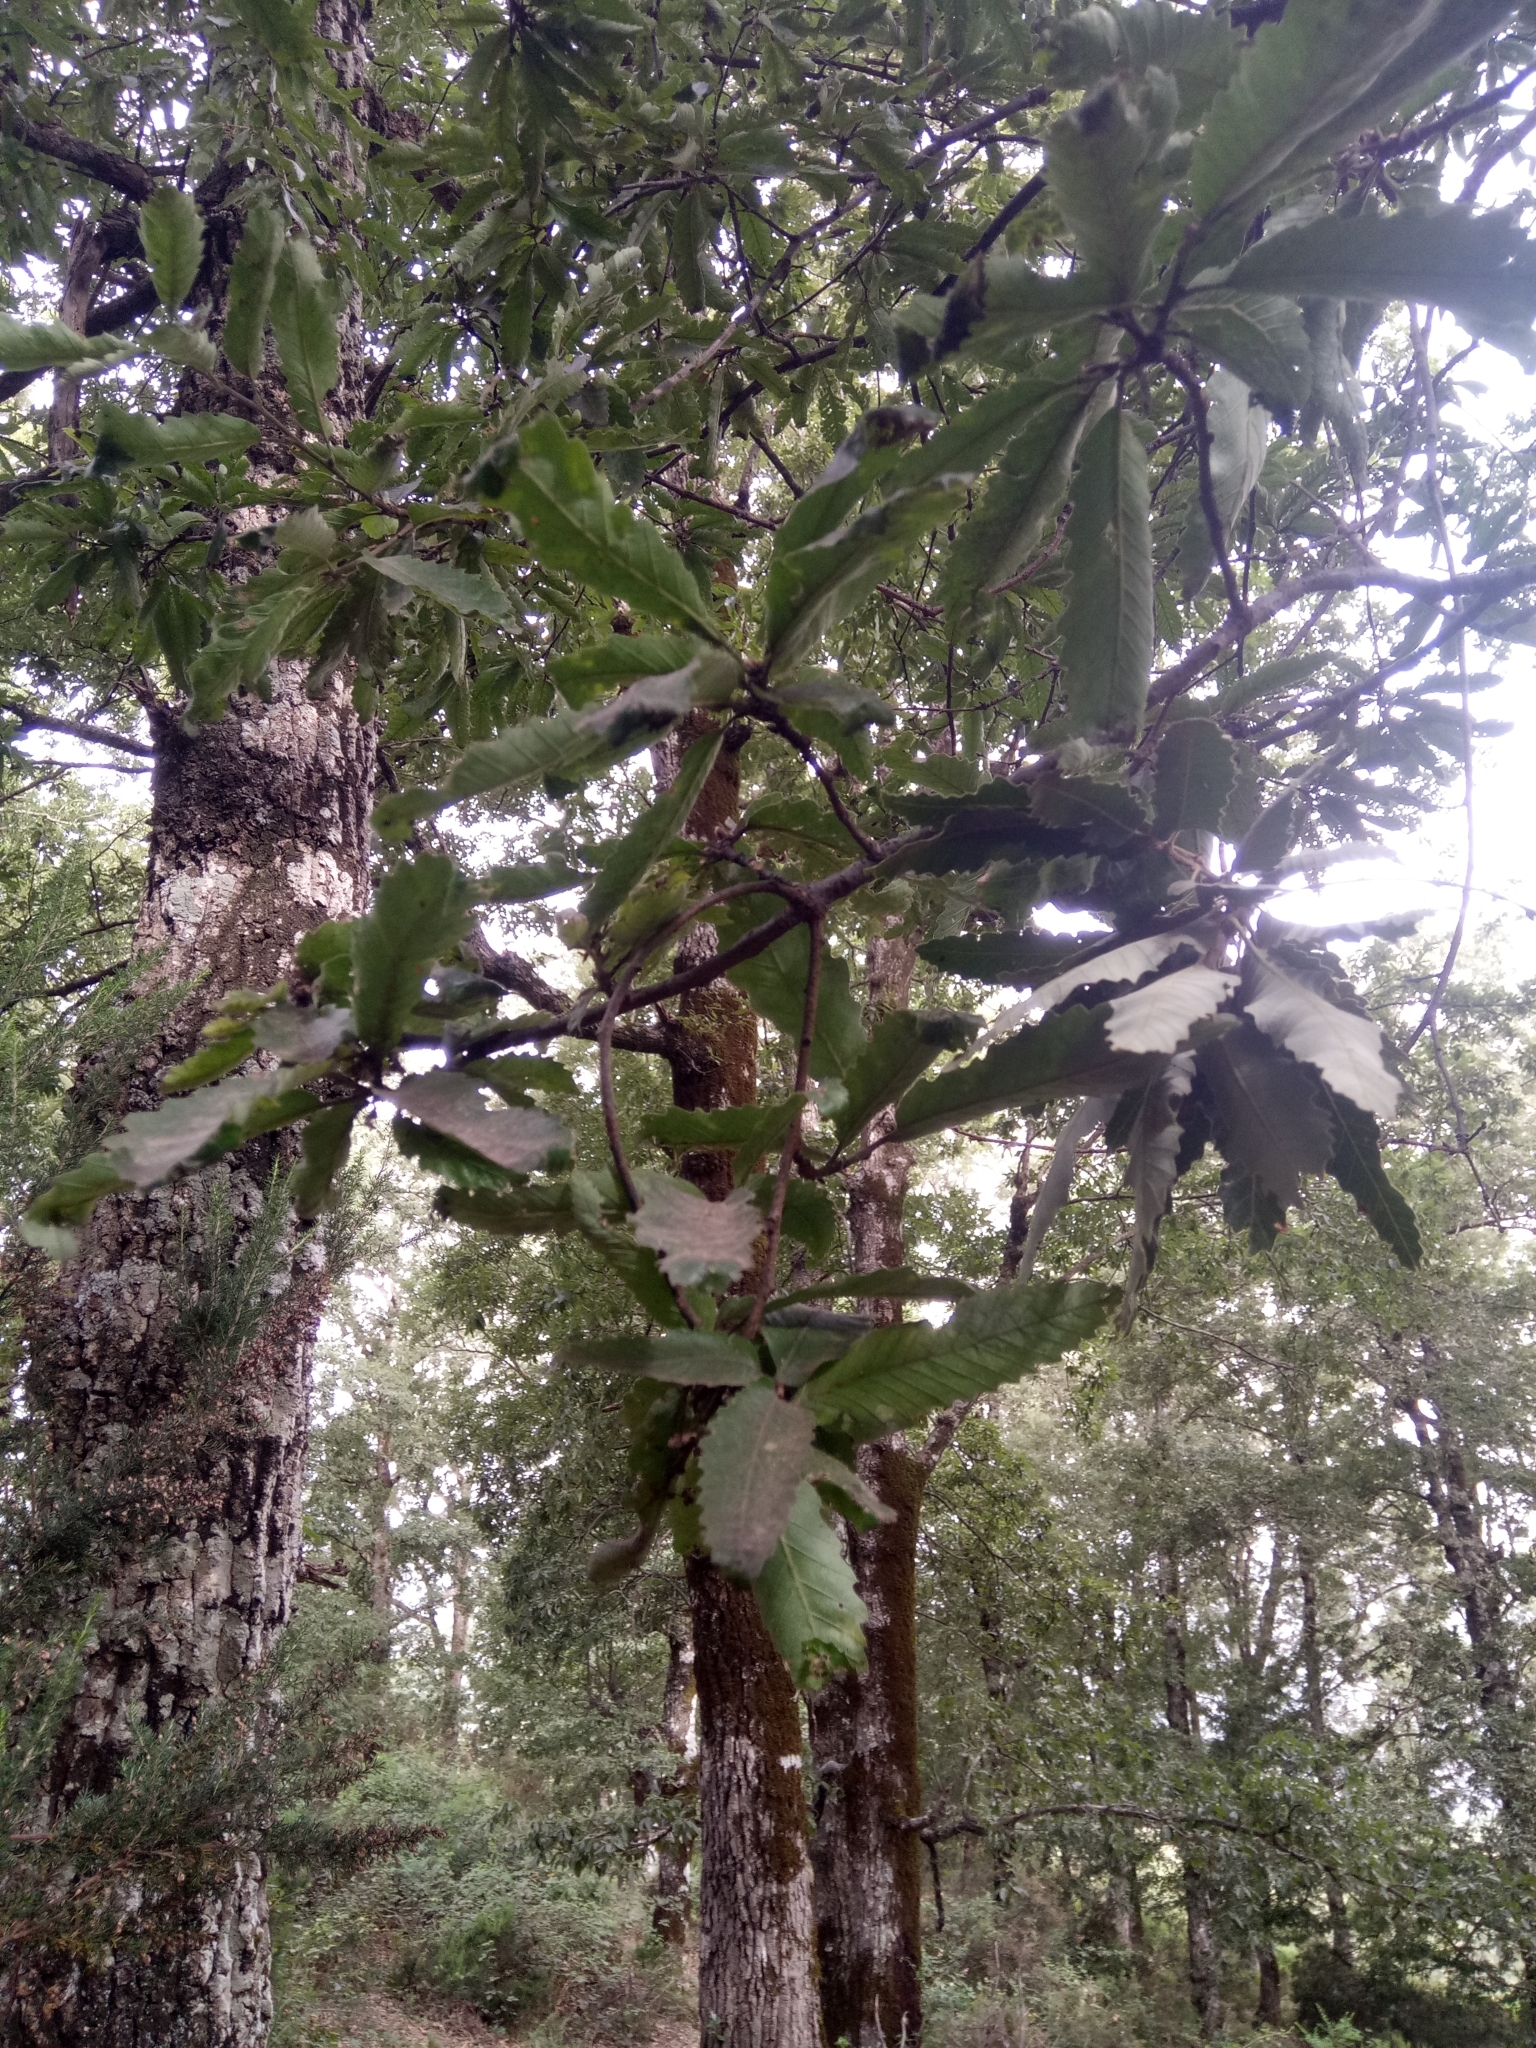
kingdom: Plantae
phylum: Tracheophyta
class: Magnoliopsida
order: Fagales
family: Fagaceae
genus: Quercus
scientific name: Quercus afares
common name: African oak
